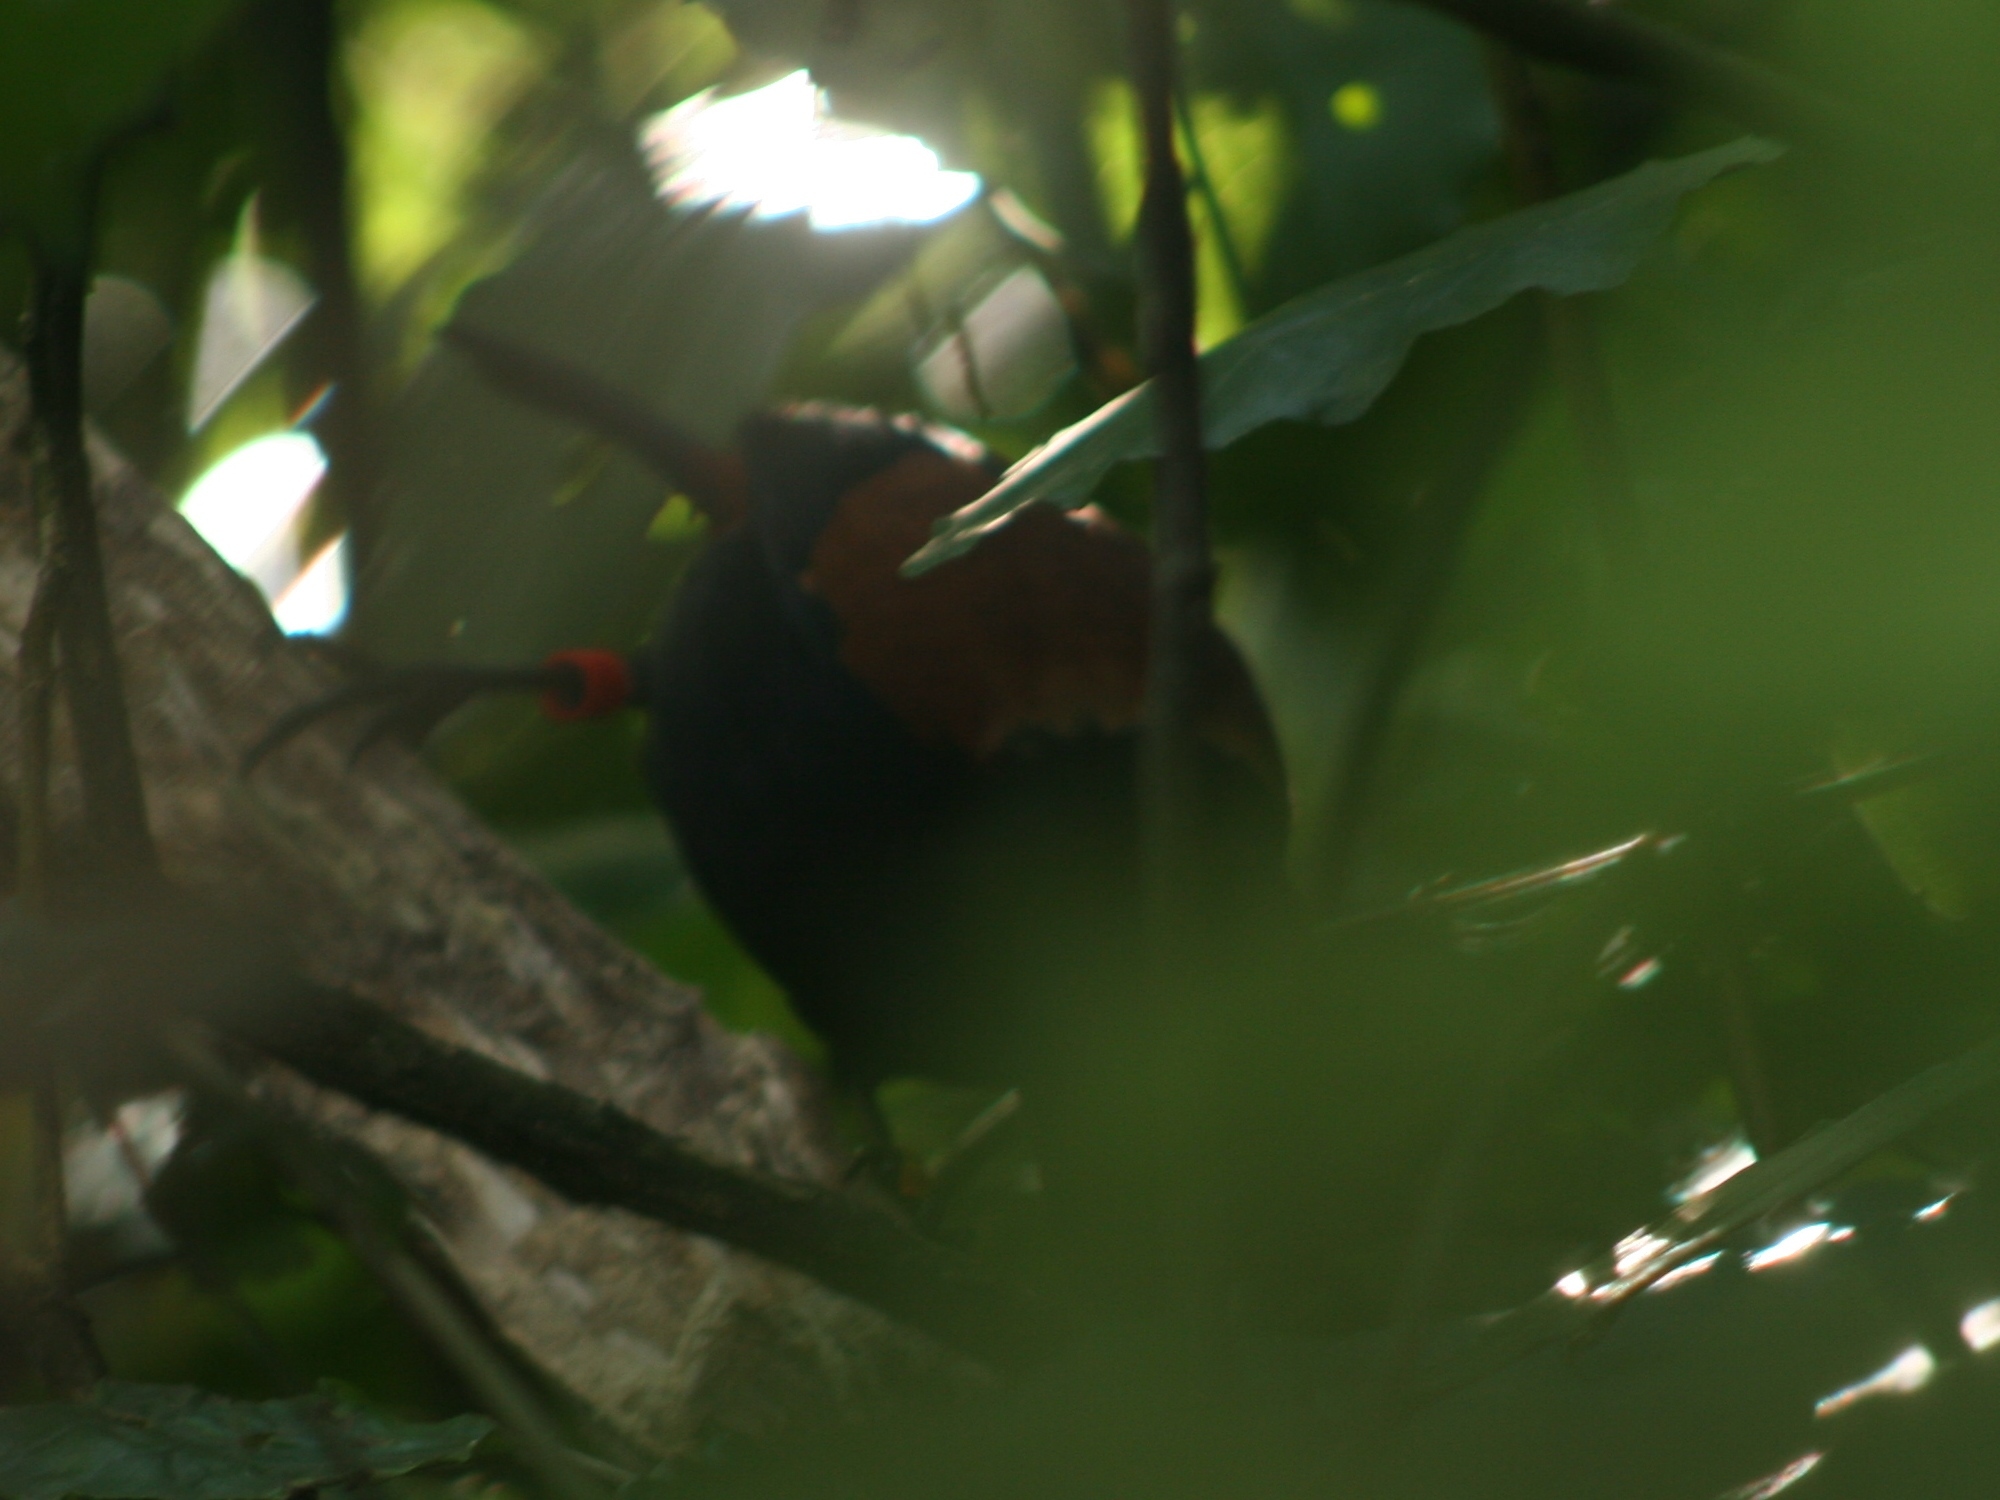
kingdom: Animalia
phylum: Chordata
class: Aves
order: Passeriformes
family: Callaeatidae
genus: Philesturnus
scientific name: Philesturnus carunculatus
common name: South island saddleback
